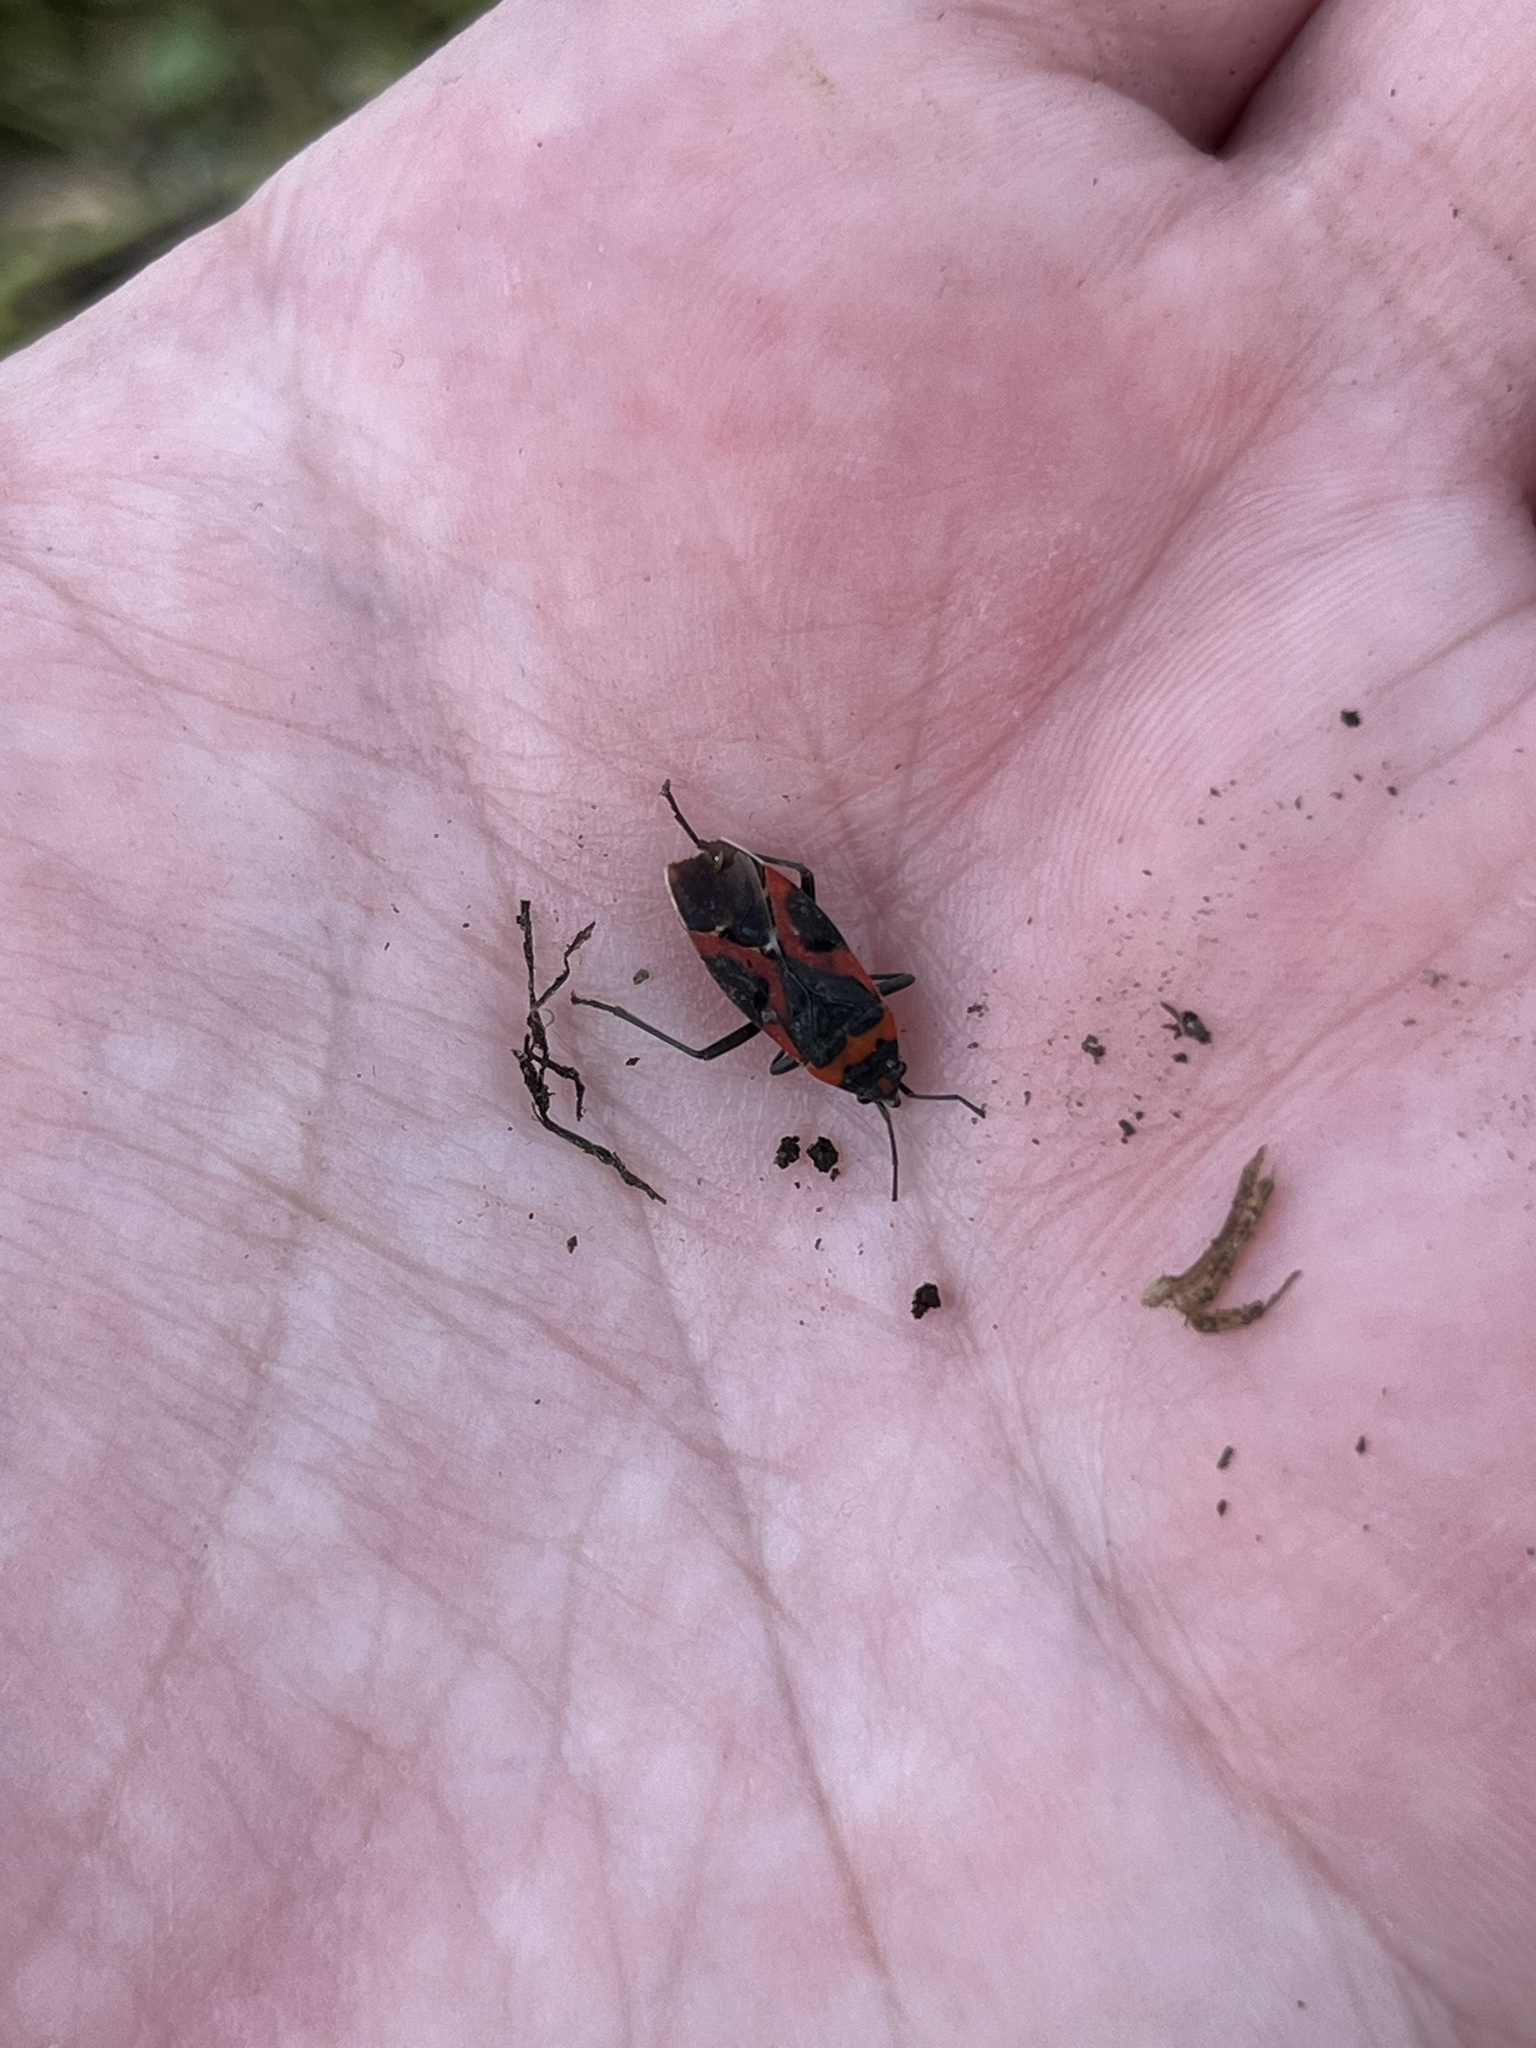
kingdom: Animalia
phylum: Arthropoda
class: Insecta
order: Hemiptera
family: Lygaeidae
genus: Lygaeus
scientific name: Lygaeus kalmii
